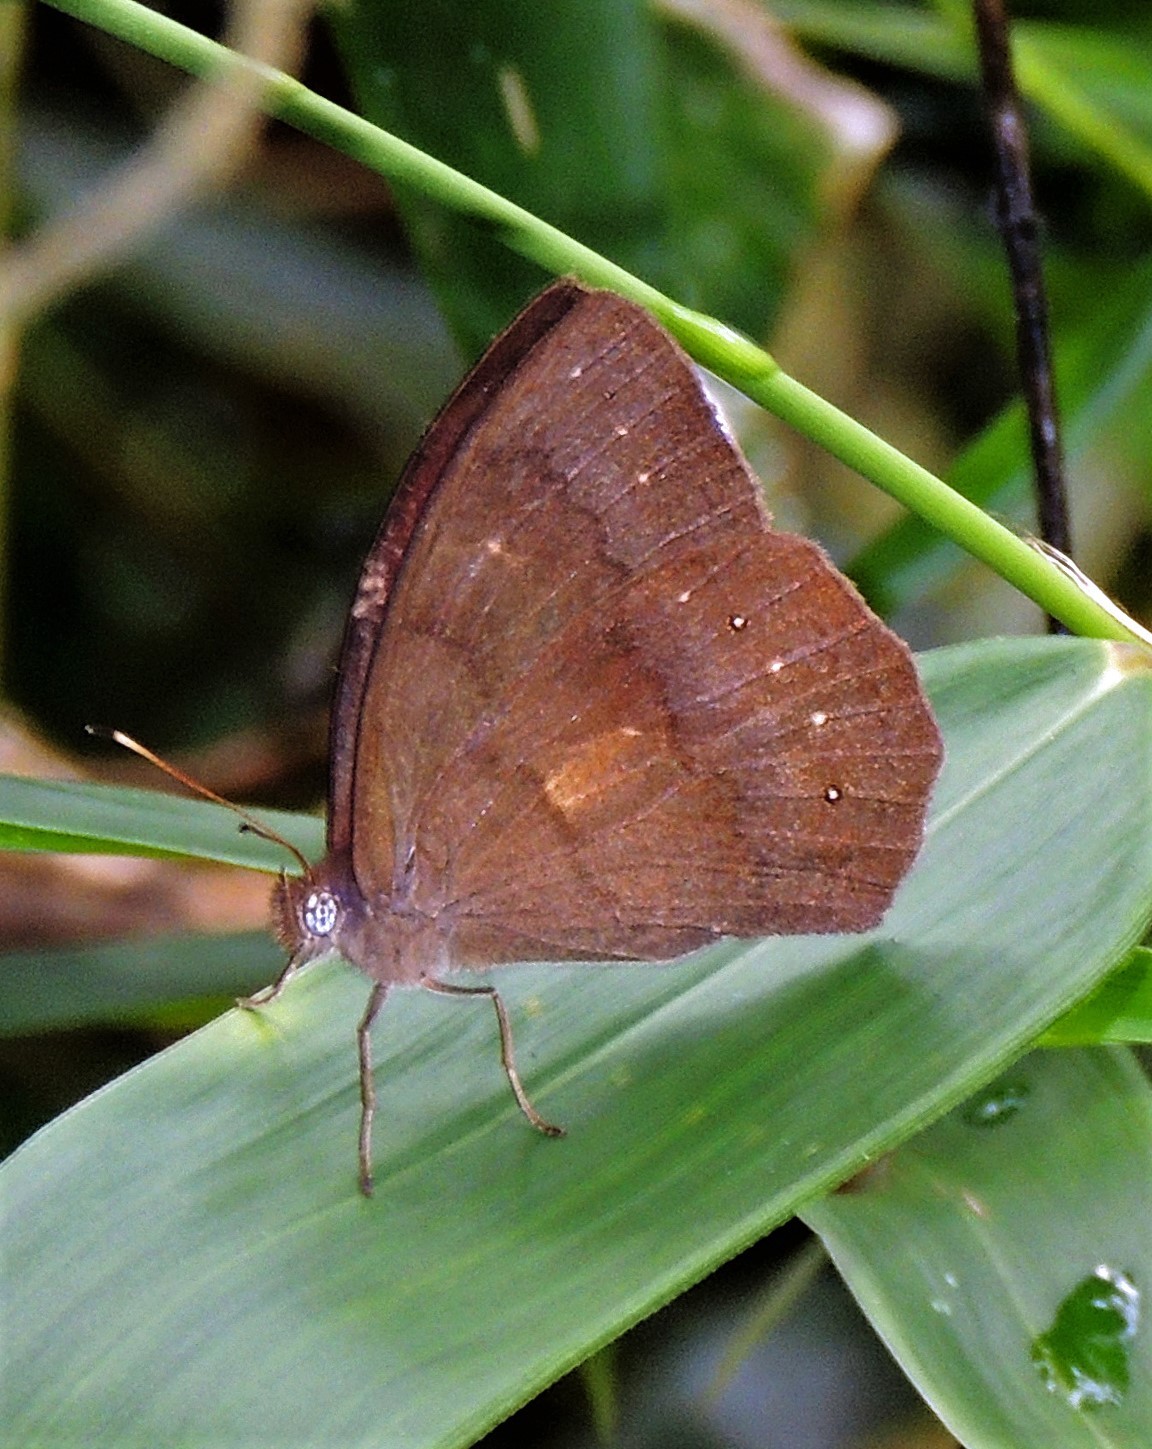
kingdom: Animalia
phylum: Arthropoda
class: Insecta
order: Lepidoptera
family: Nymphalidae
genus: Pseudodebis
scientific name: Pseudodebis euptychidia
